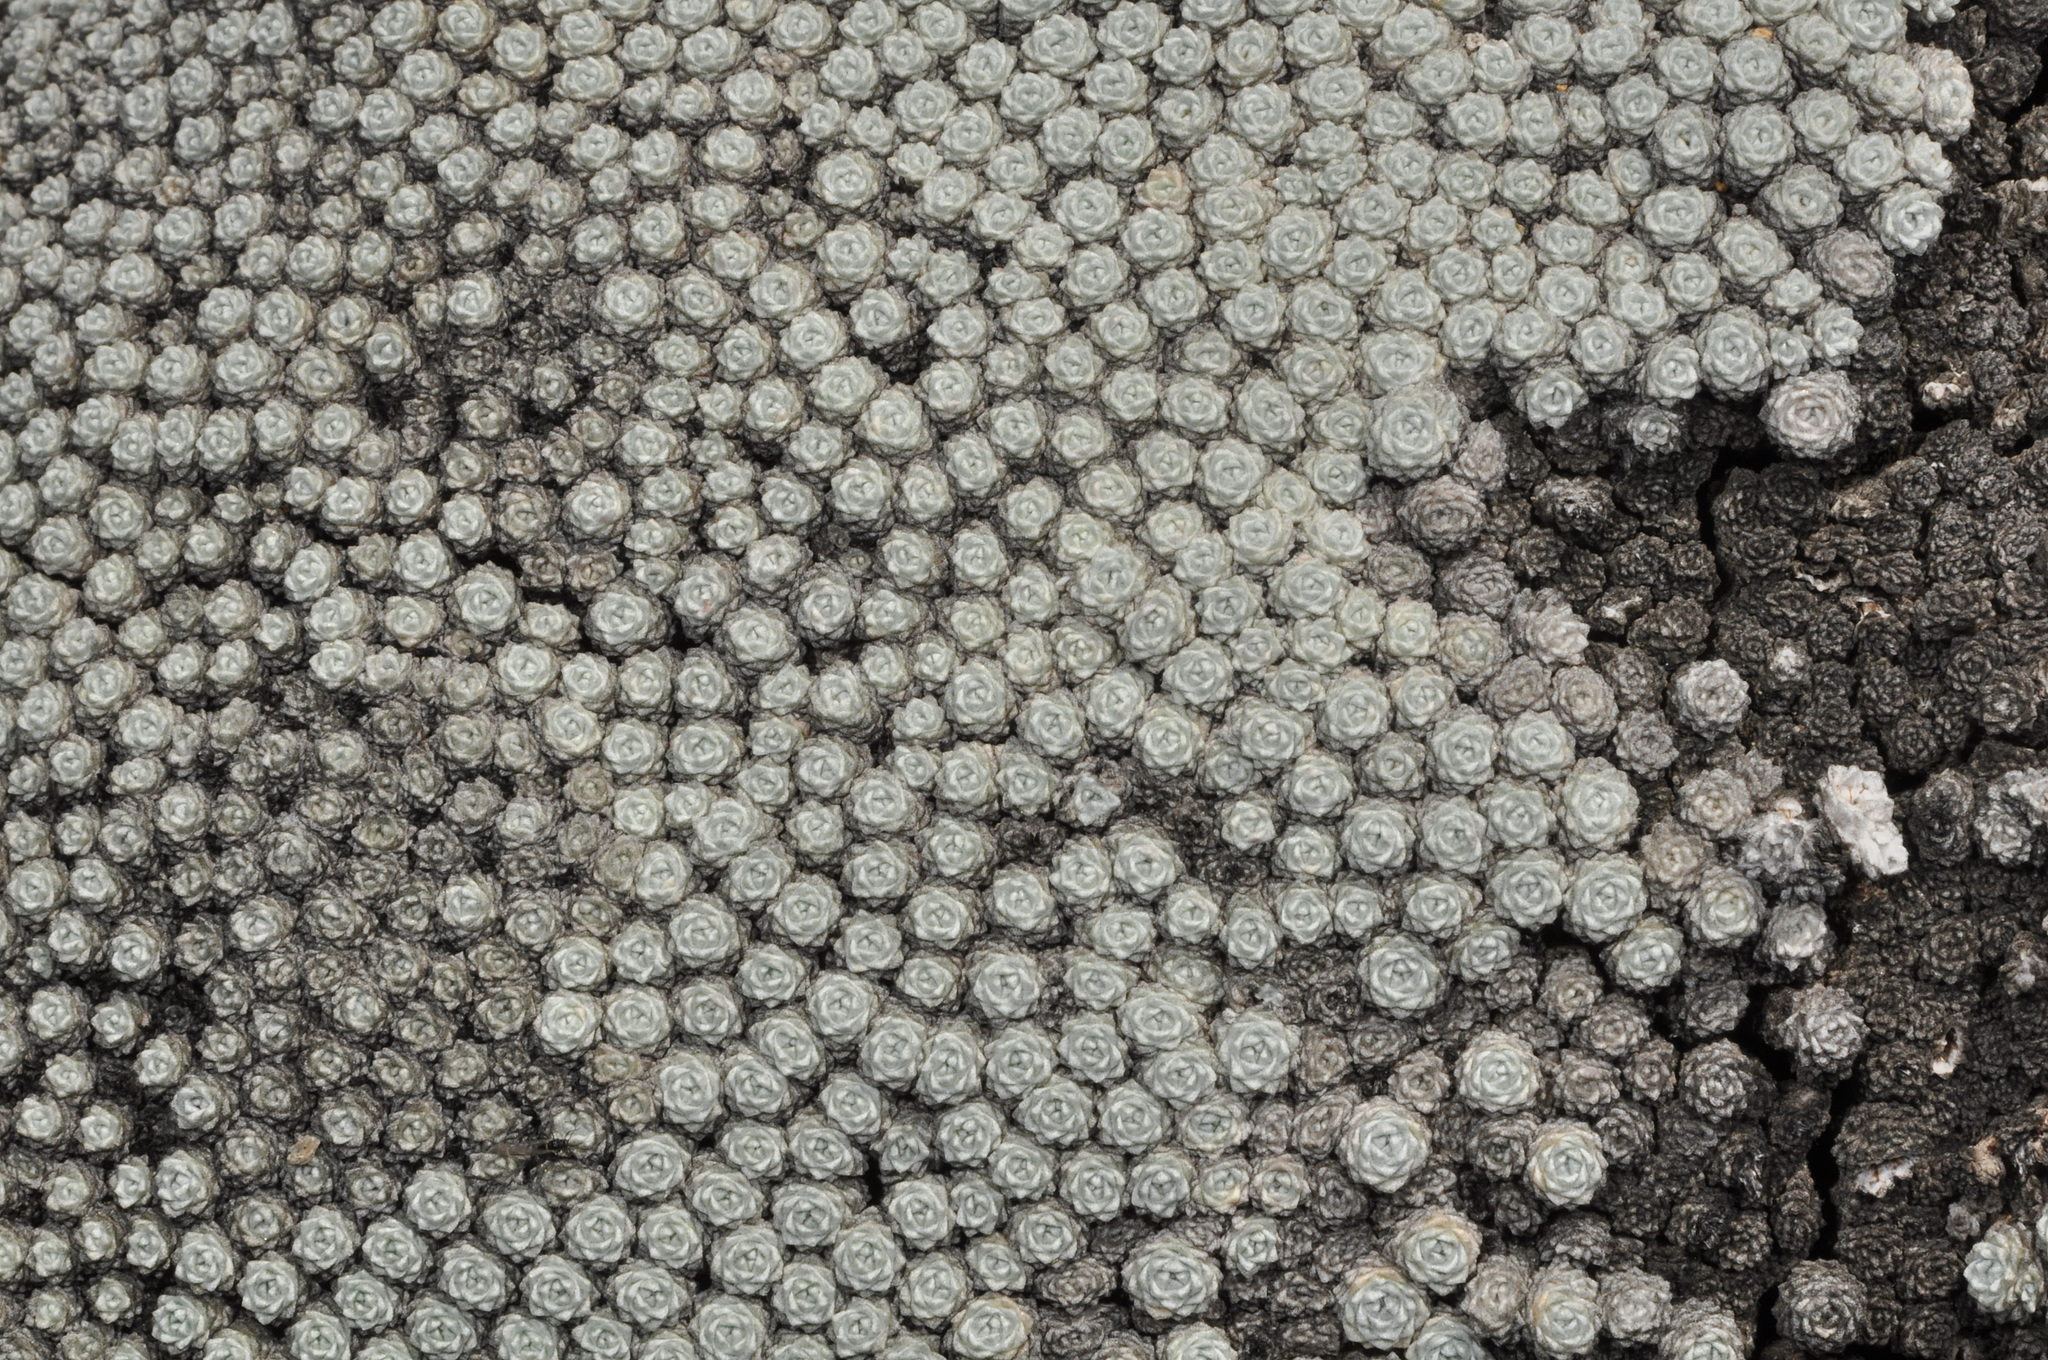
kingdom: Plantae
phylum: Tracheophyta
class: Magnoliopsida
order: Asterales
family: Asteraceae
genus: Raoulia
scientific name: Raoulia bryoides
